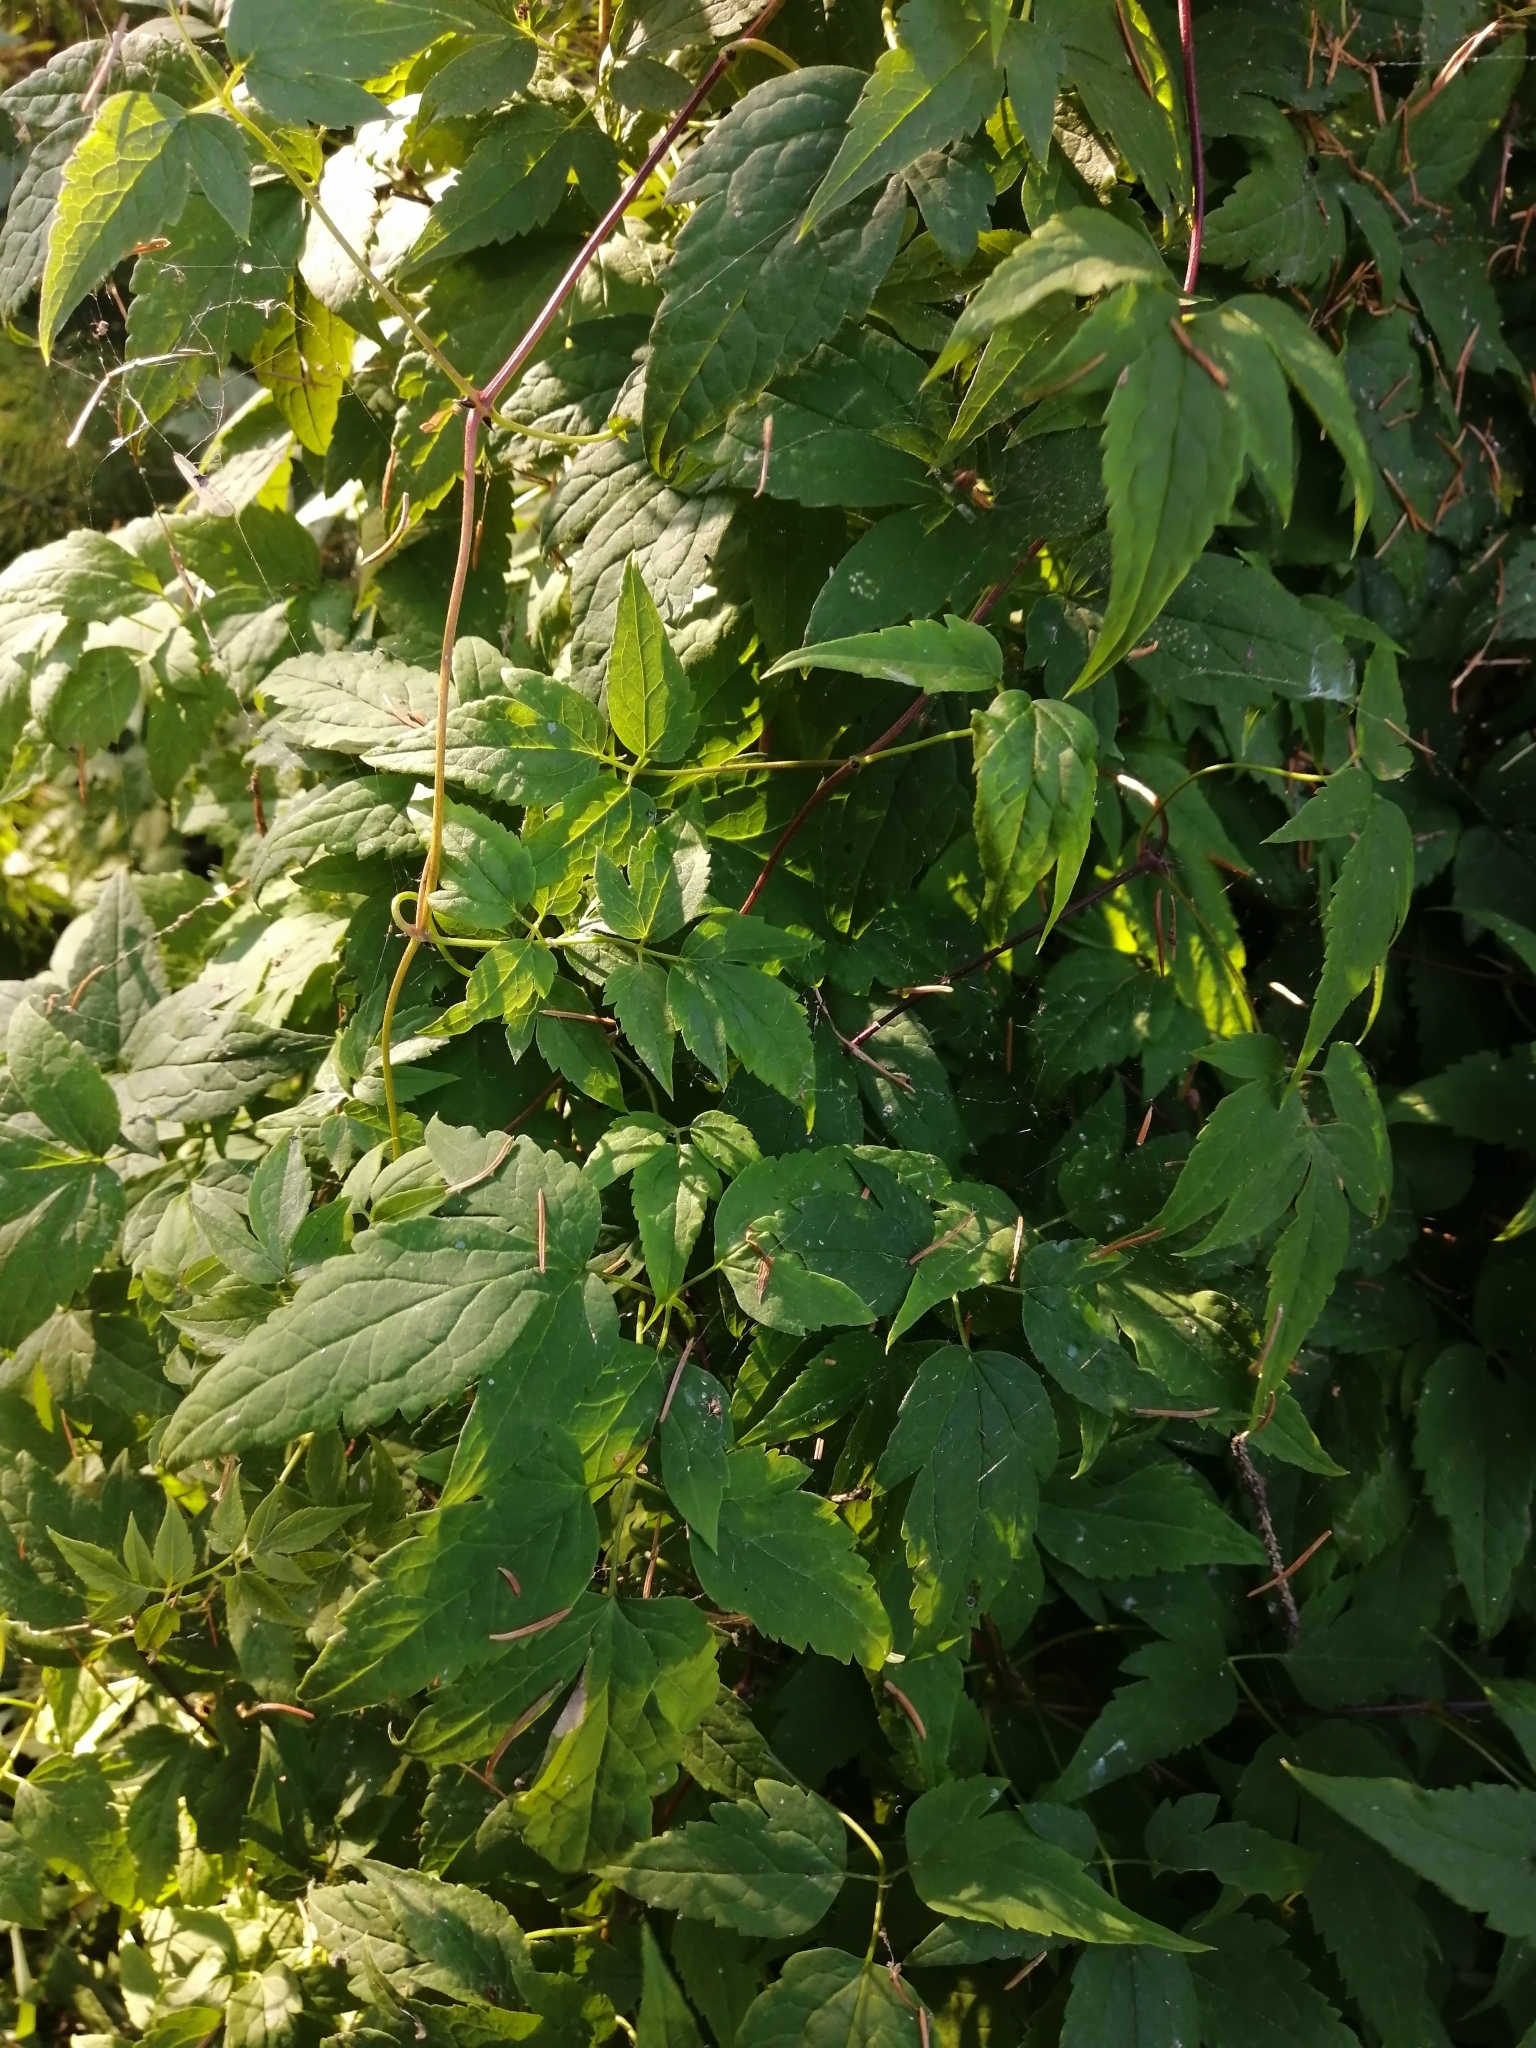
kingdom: Plantae
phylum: Tracheophyta
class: Magnoliopsida
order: Ranunculales
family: Ranunculaceae
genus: Clematis
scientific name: Clematis sibirica
